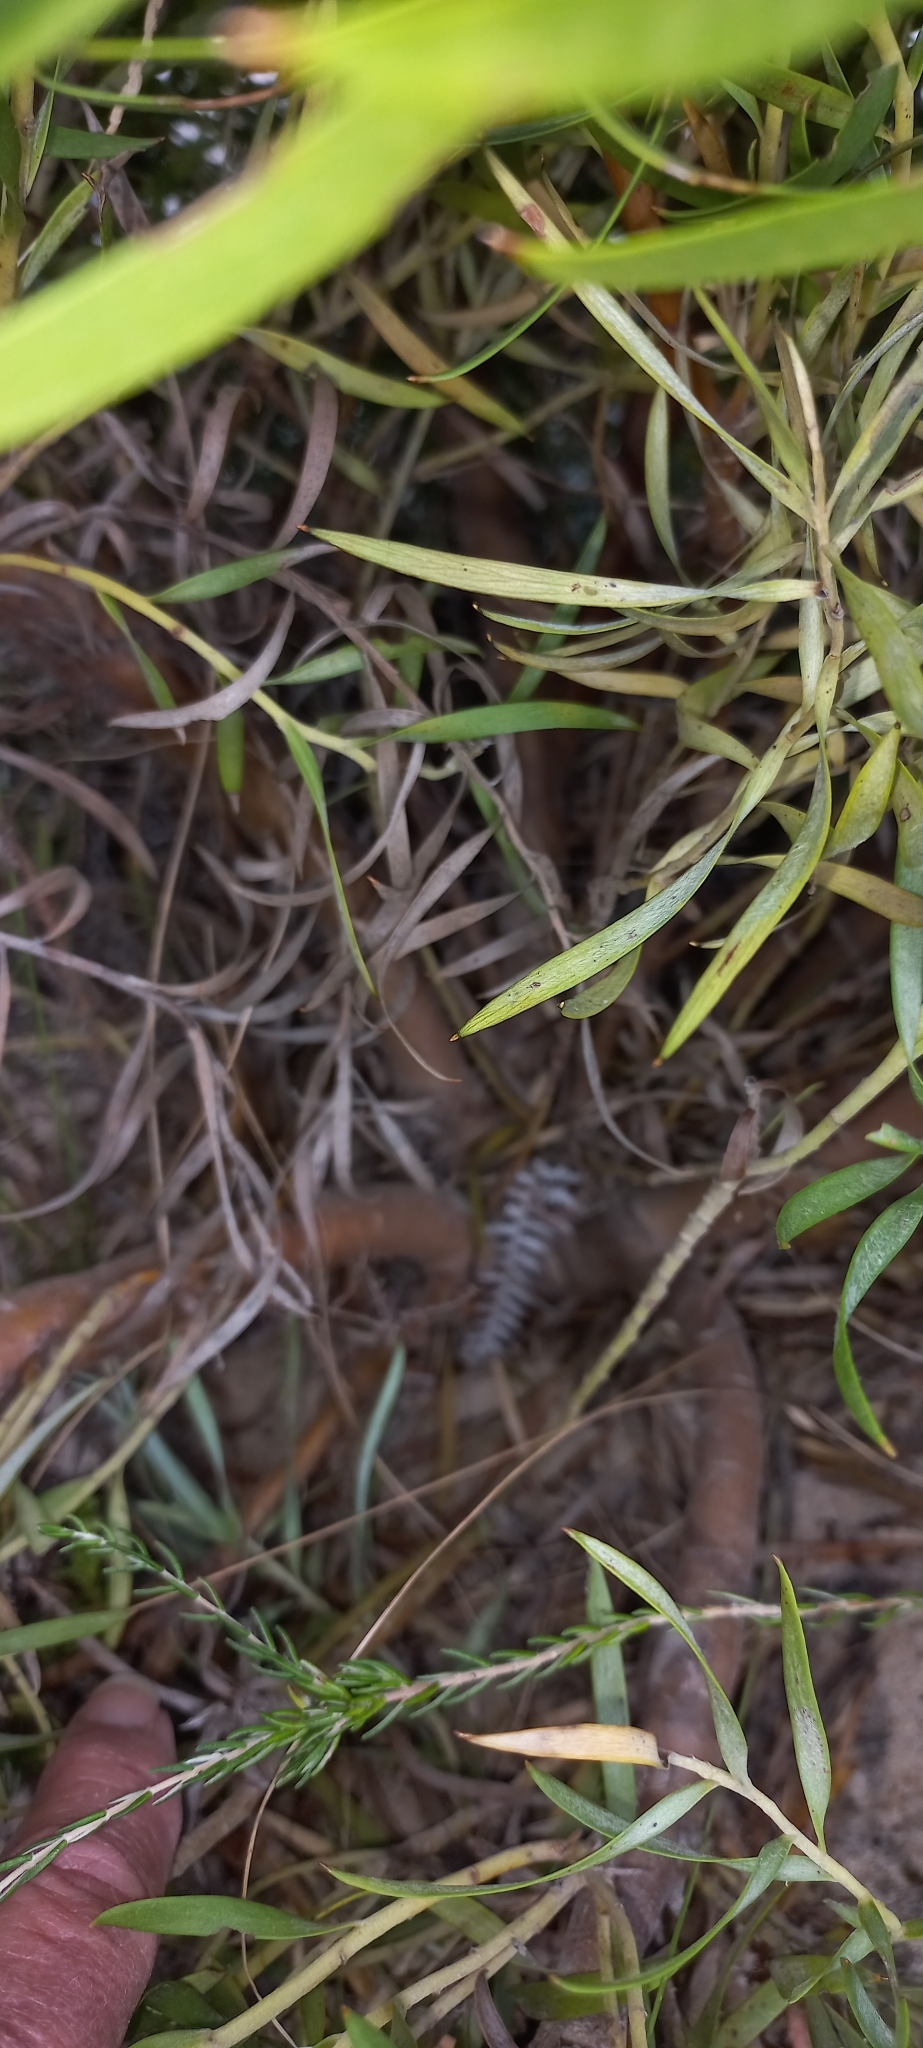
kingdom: Plantae
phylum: Tracheophyta
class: Magnoliopsida
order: Proteales
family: Proteaceae
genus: Leucadendron
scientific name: Leucadendron coniferum
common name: Dune conebush
